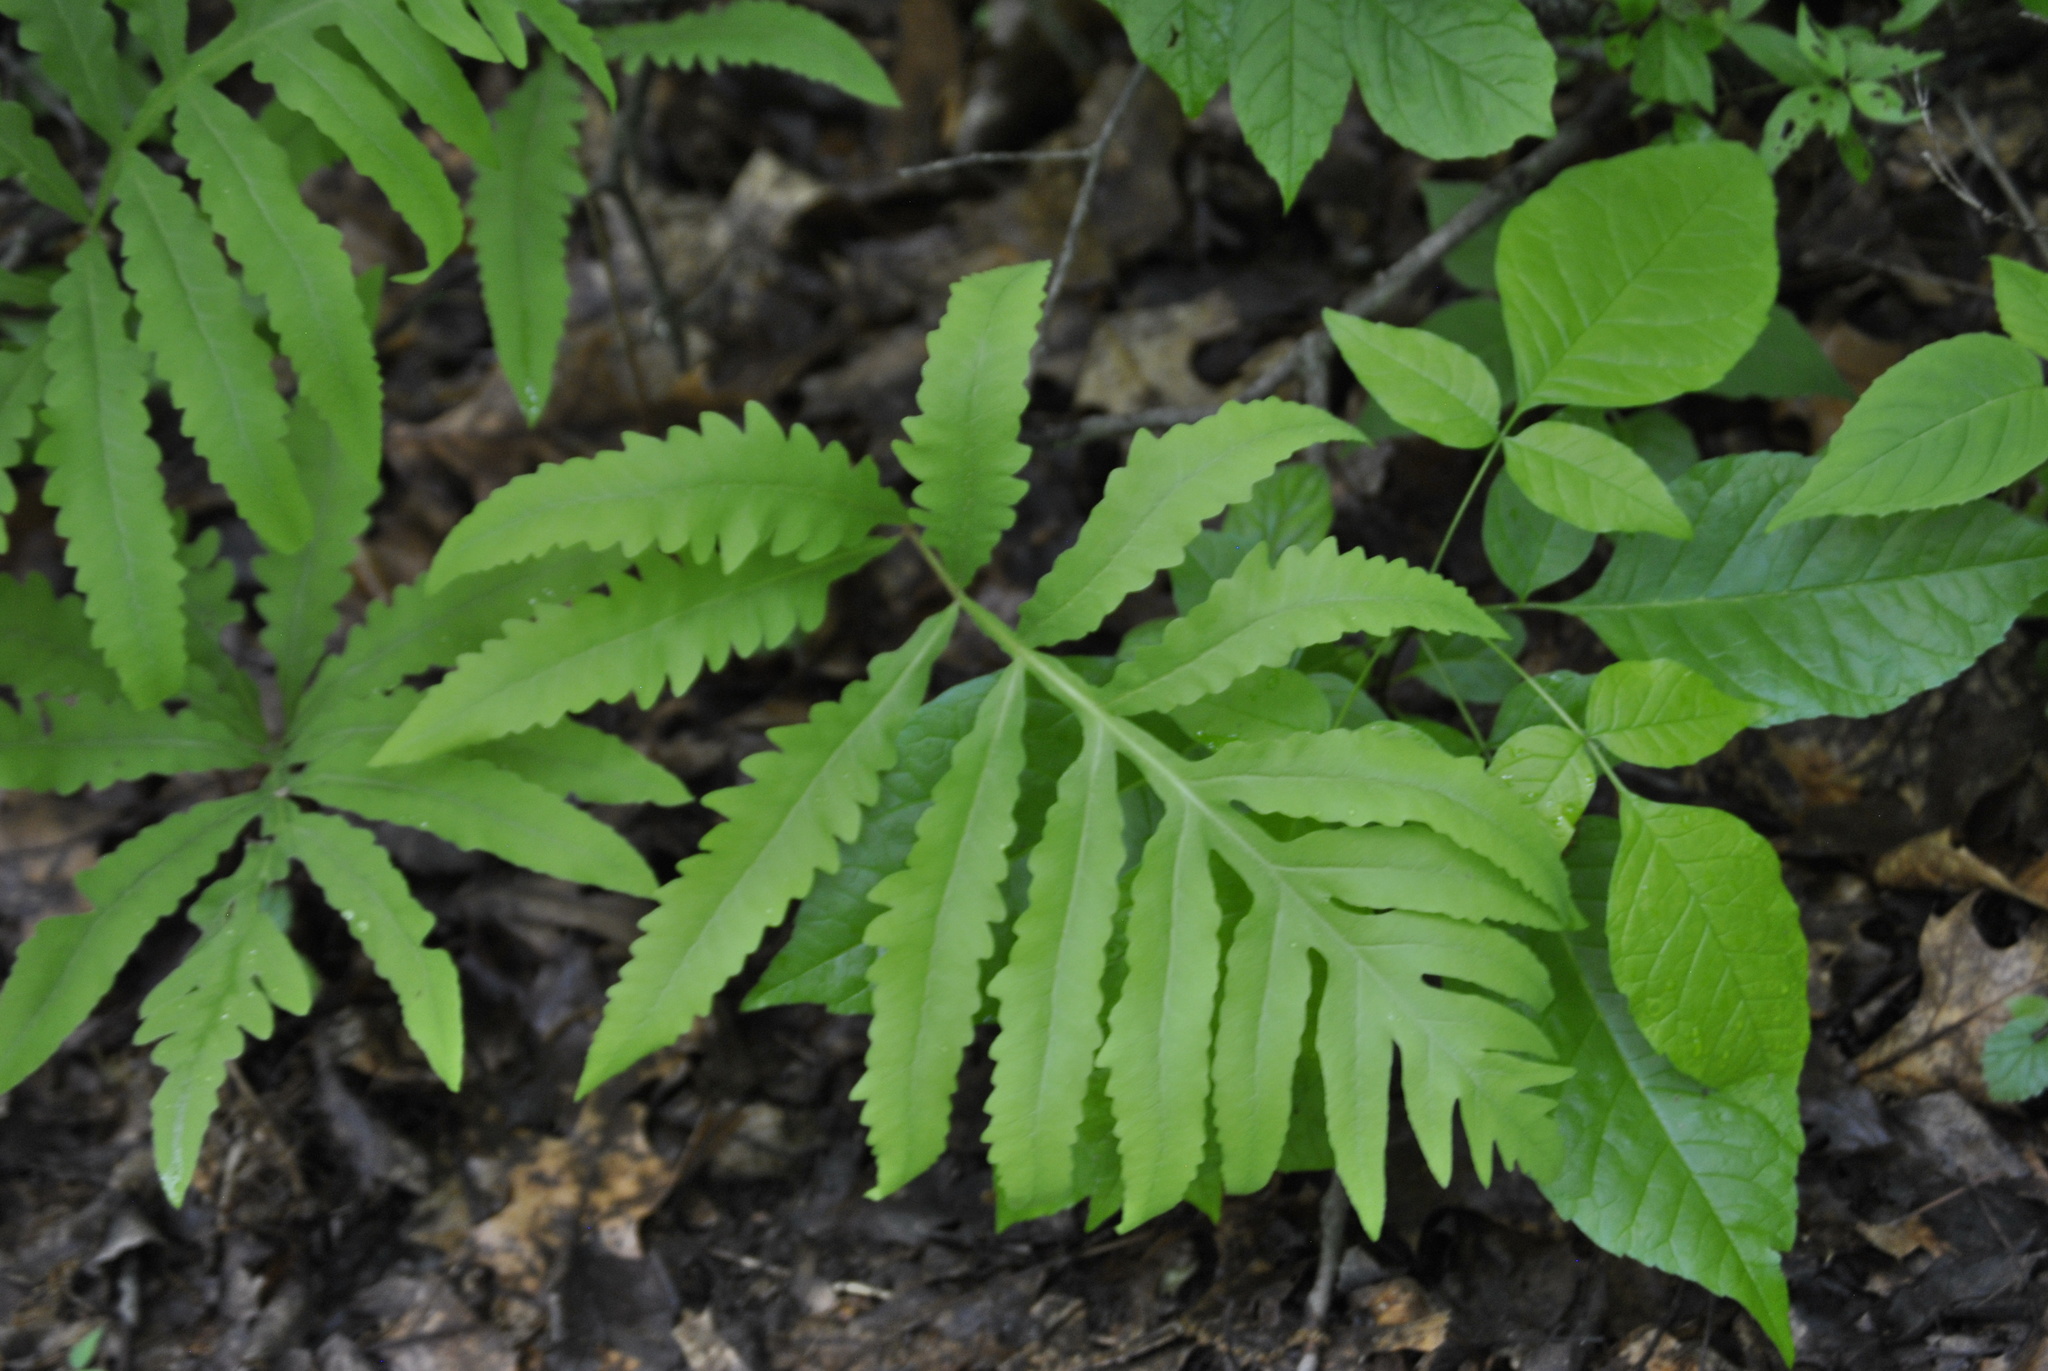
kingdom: Plantae
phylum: Tracheophyta
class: Polypodiopsida
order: Polypodiales
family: Onocleaceae
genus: Onoclea
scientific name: Onoclea sensibilis
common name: Sensitive fern
